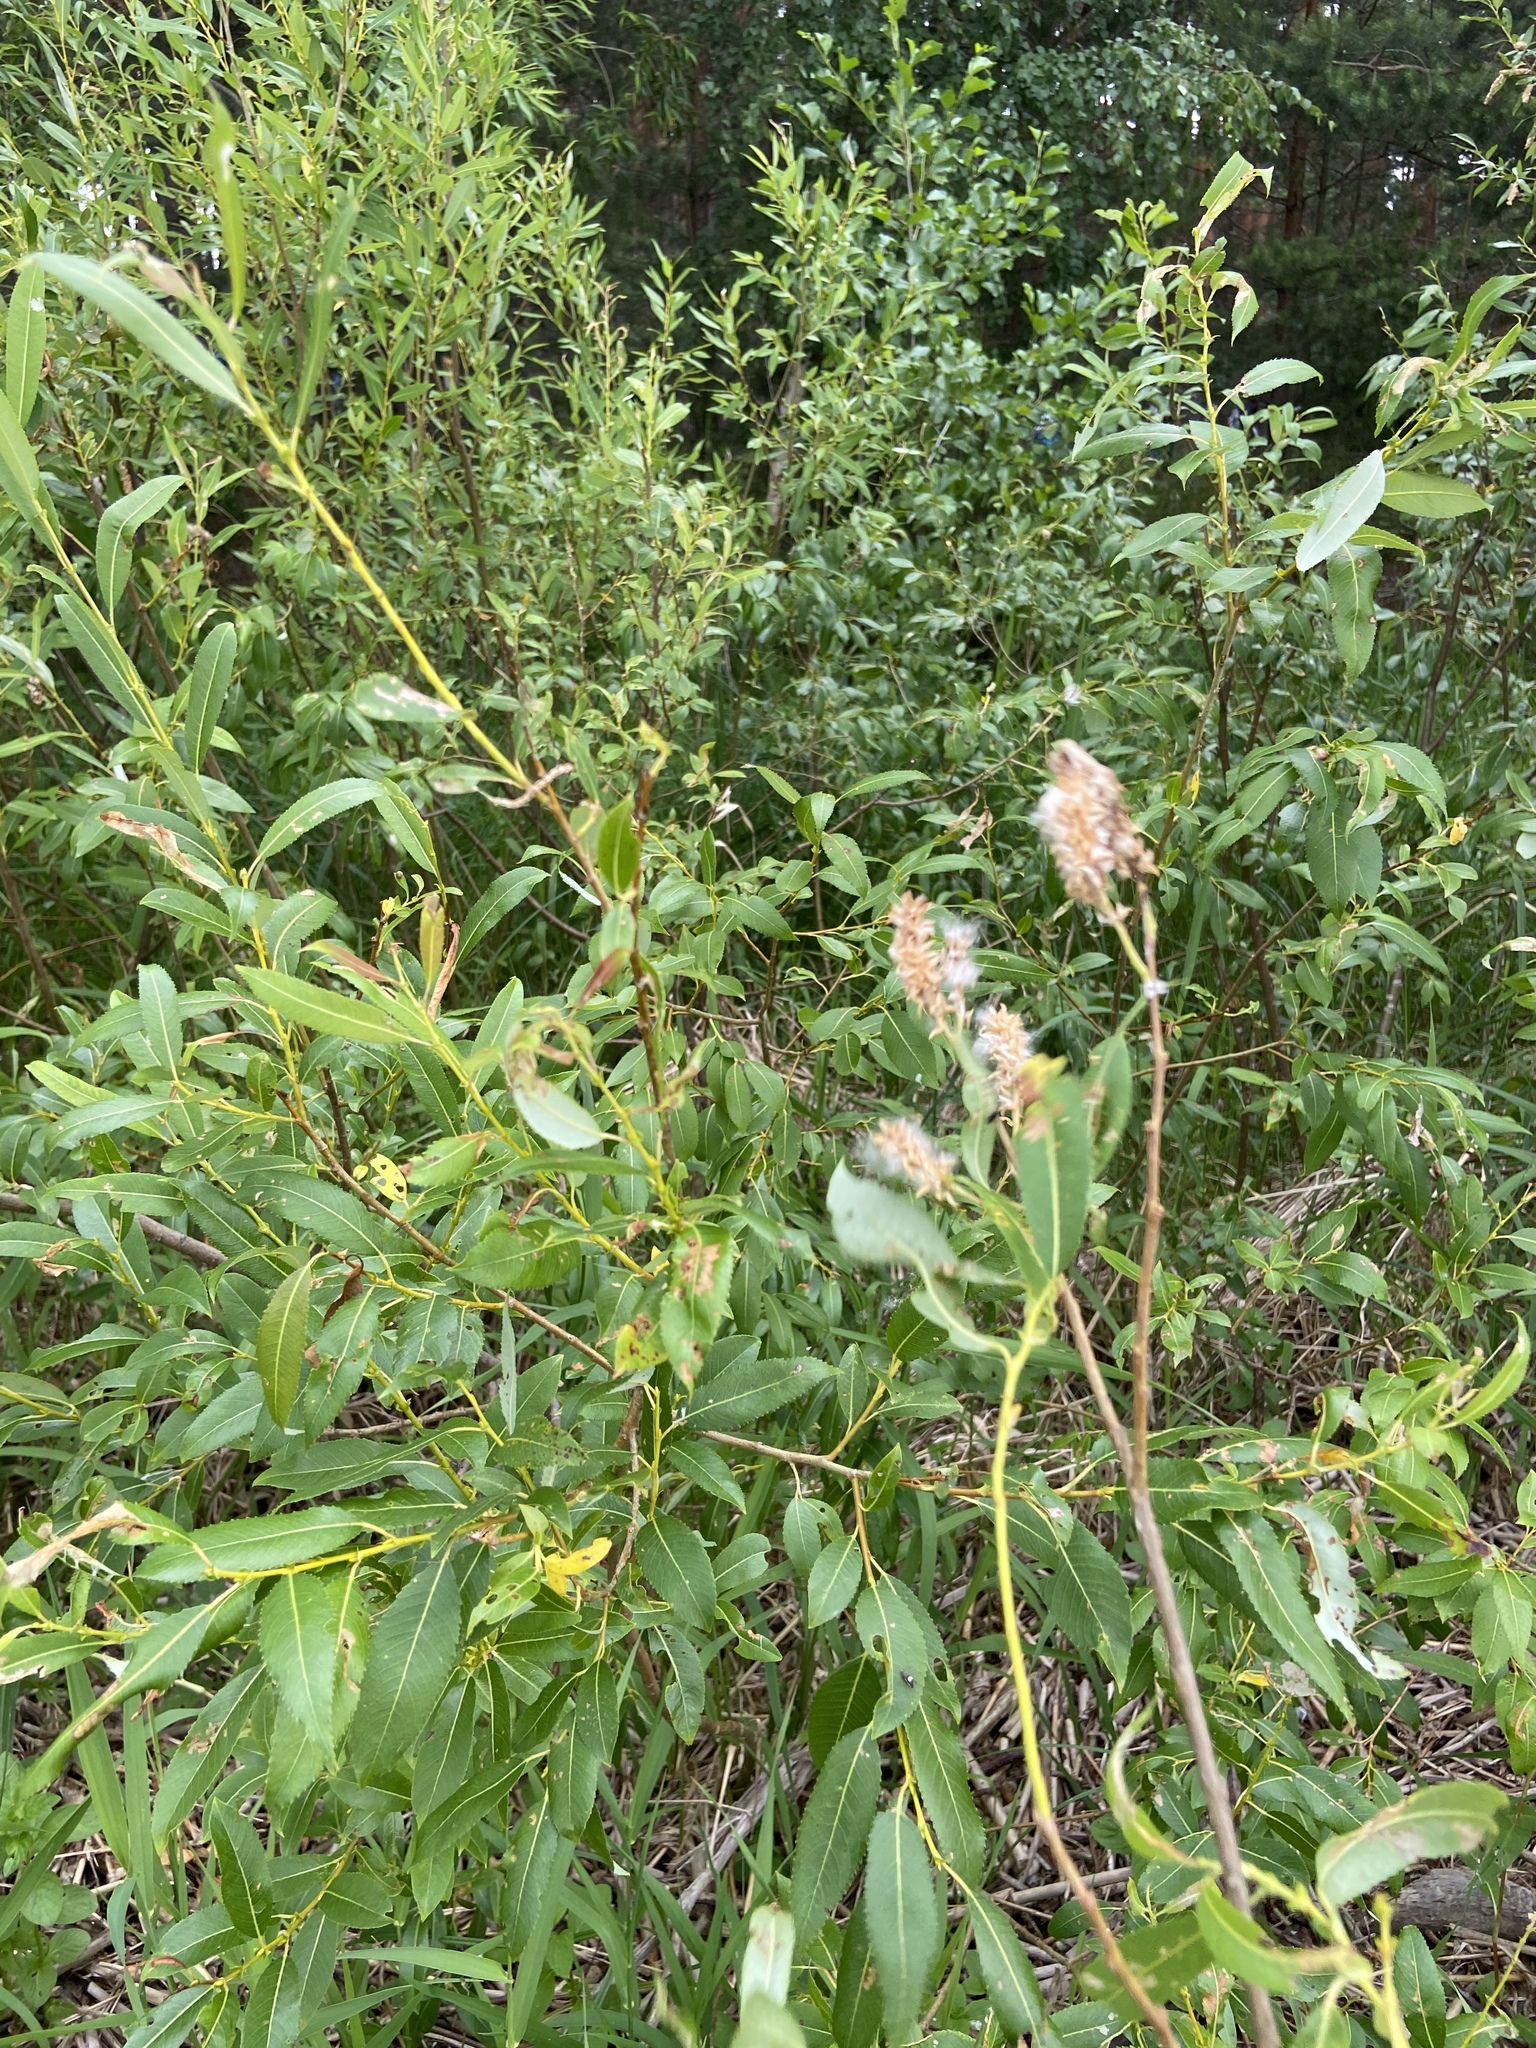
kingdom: Plantae
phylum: Tracheophyta
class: Magnoliopsida
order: Malpighiales
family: Salicaceae
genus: Salix
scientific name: Salix triandra
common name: Almond willow
